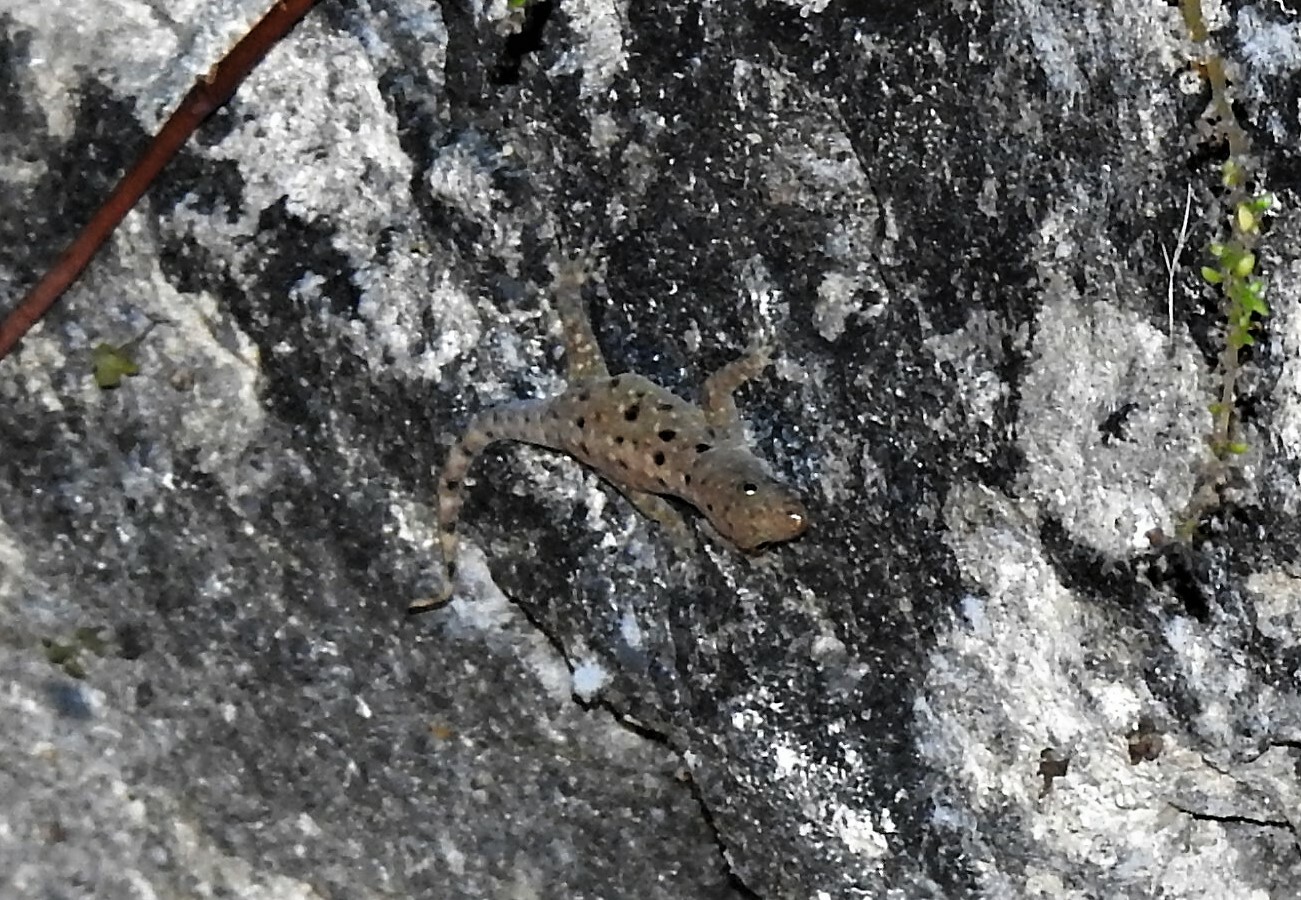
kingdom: Animalia
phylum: Chordata
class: Squamata
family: Sphaerodactylidae
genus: Gonatodes
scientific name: Gonatodes albogularis
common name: Yellow-headed gecko
